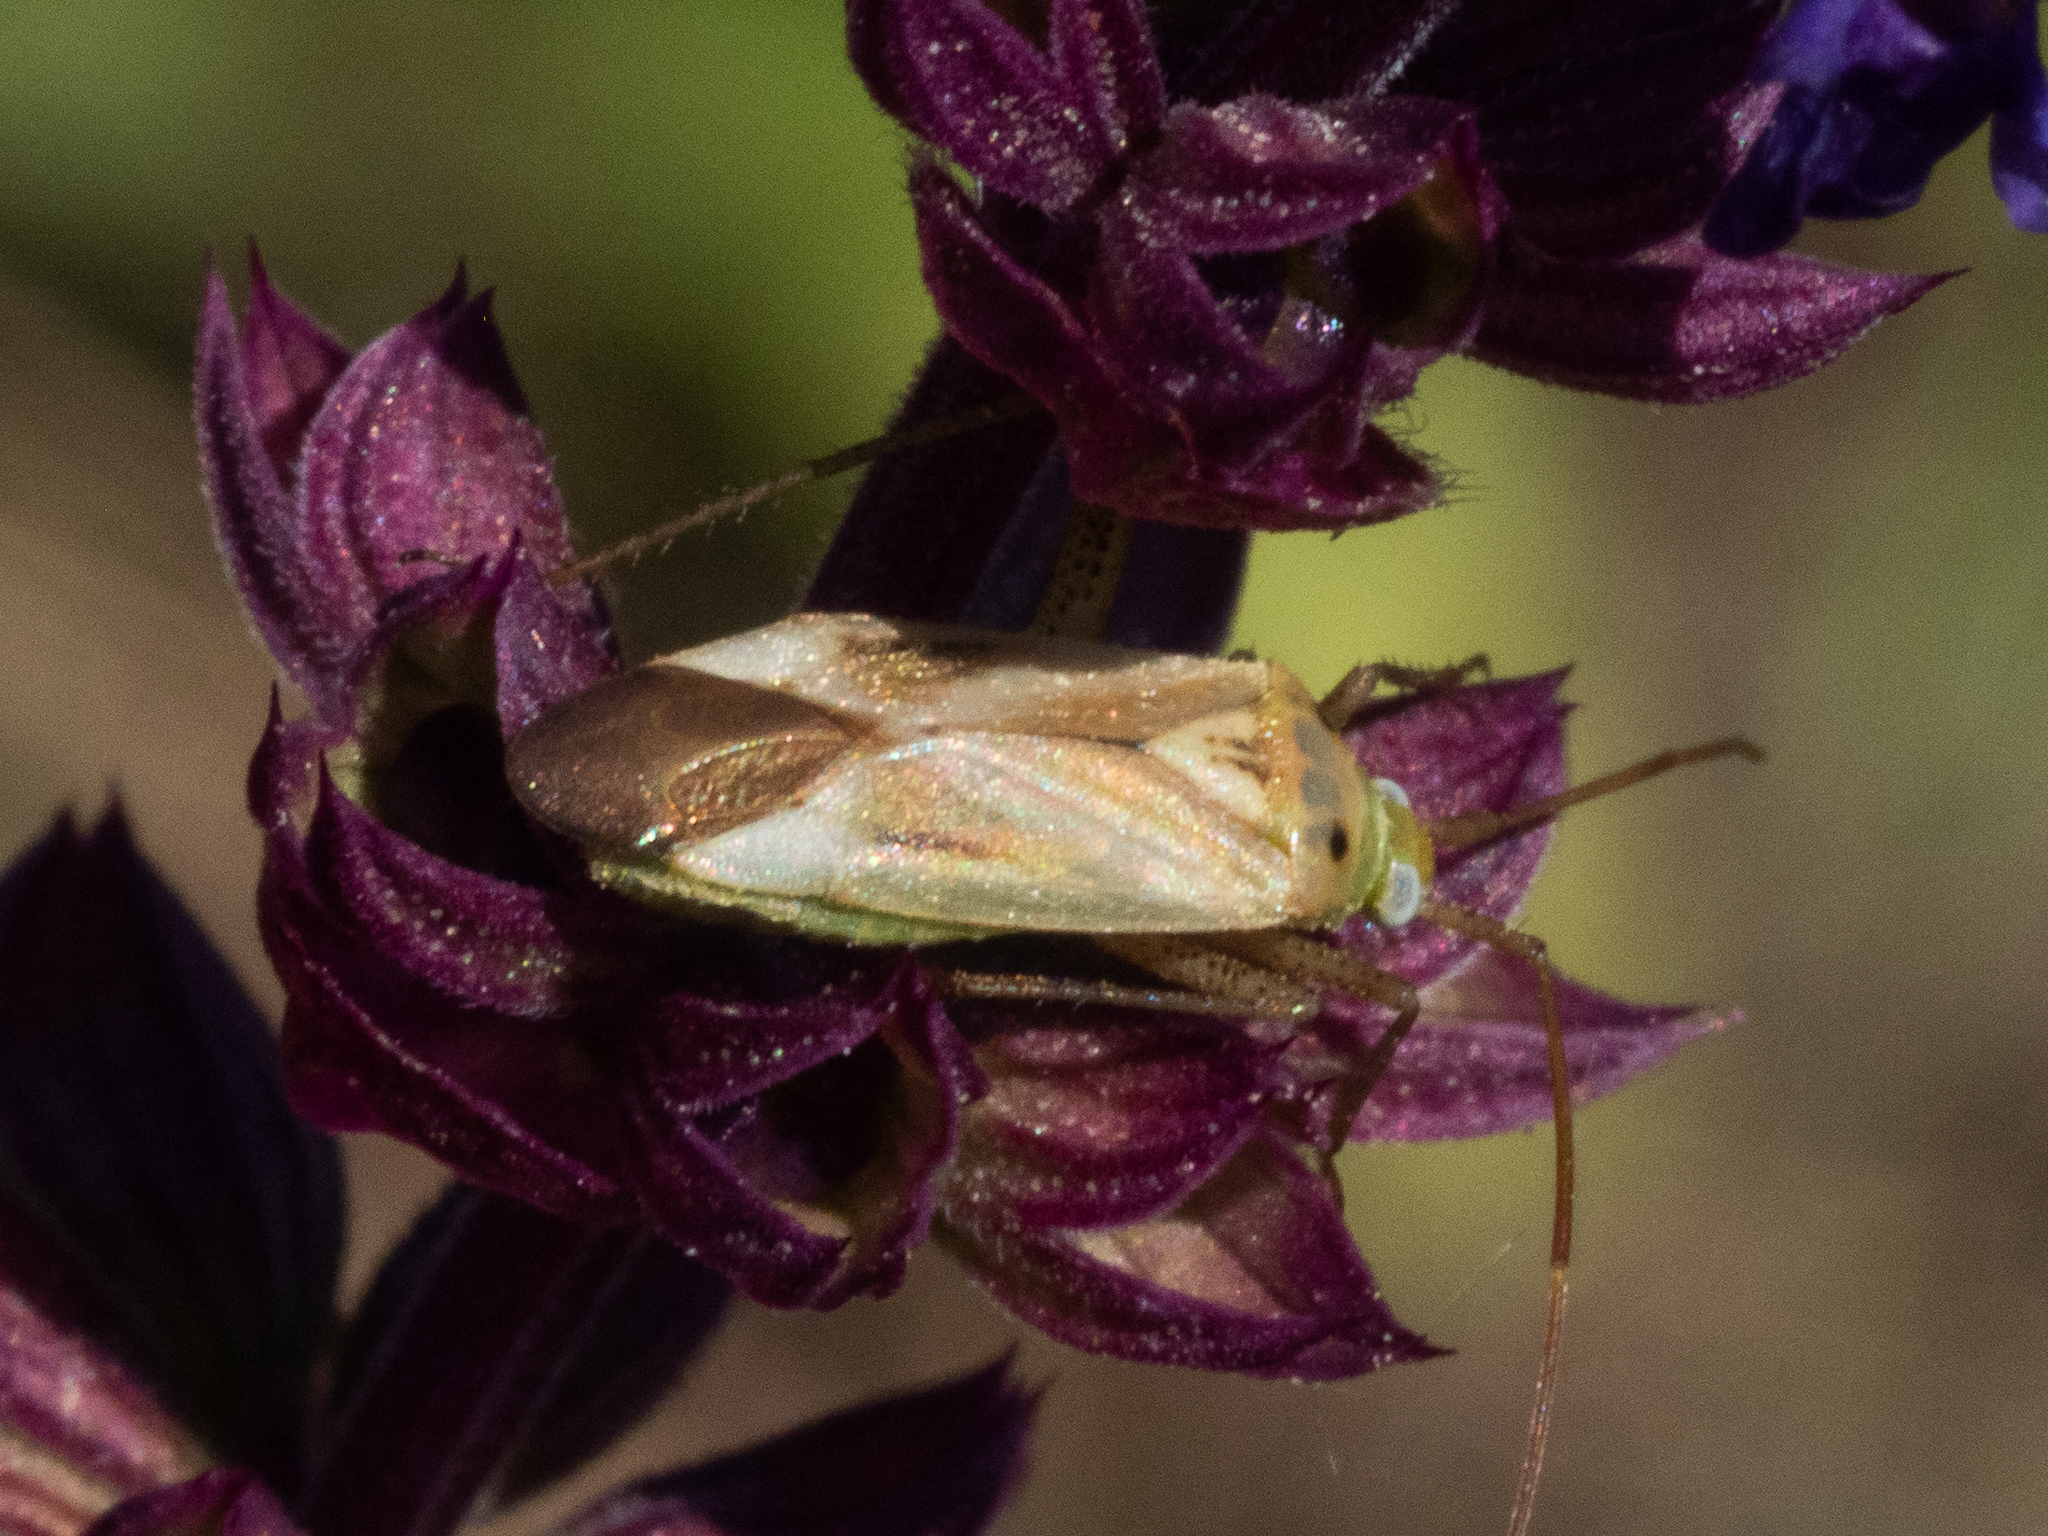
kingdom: Animalia
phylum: Arthropoda
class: Insecta
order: Hemiptera
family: Miridae
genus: Adelphocoris
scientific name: Adelphocoris lineolatus
